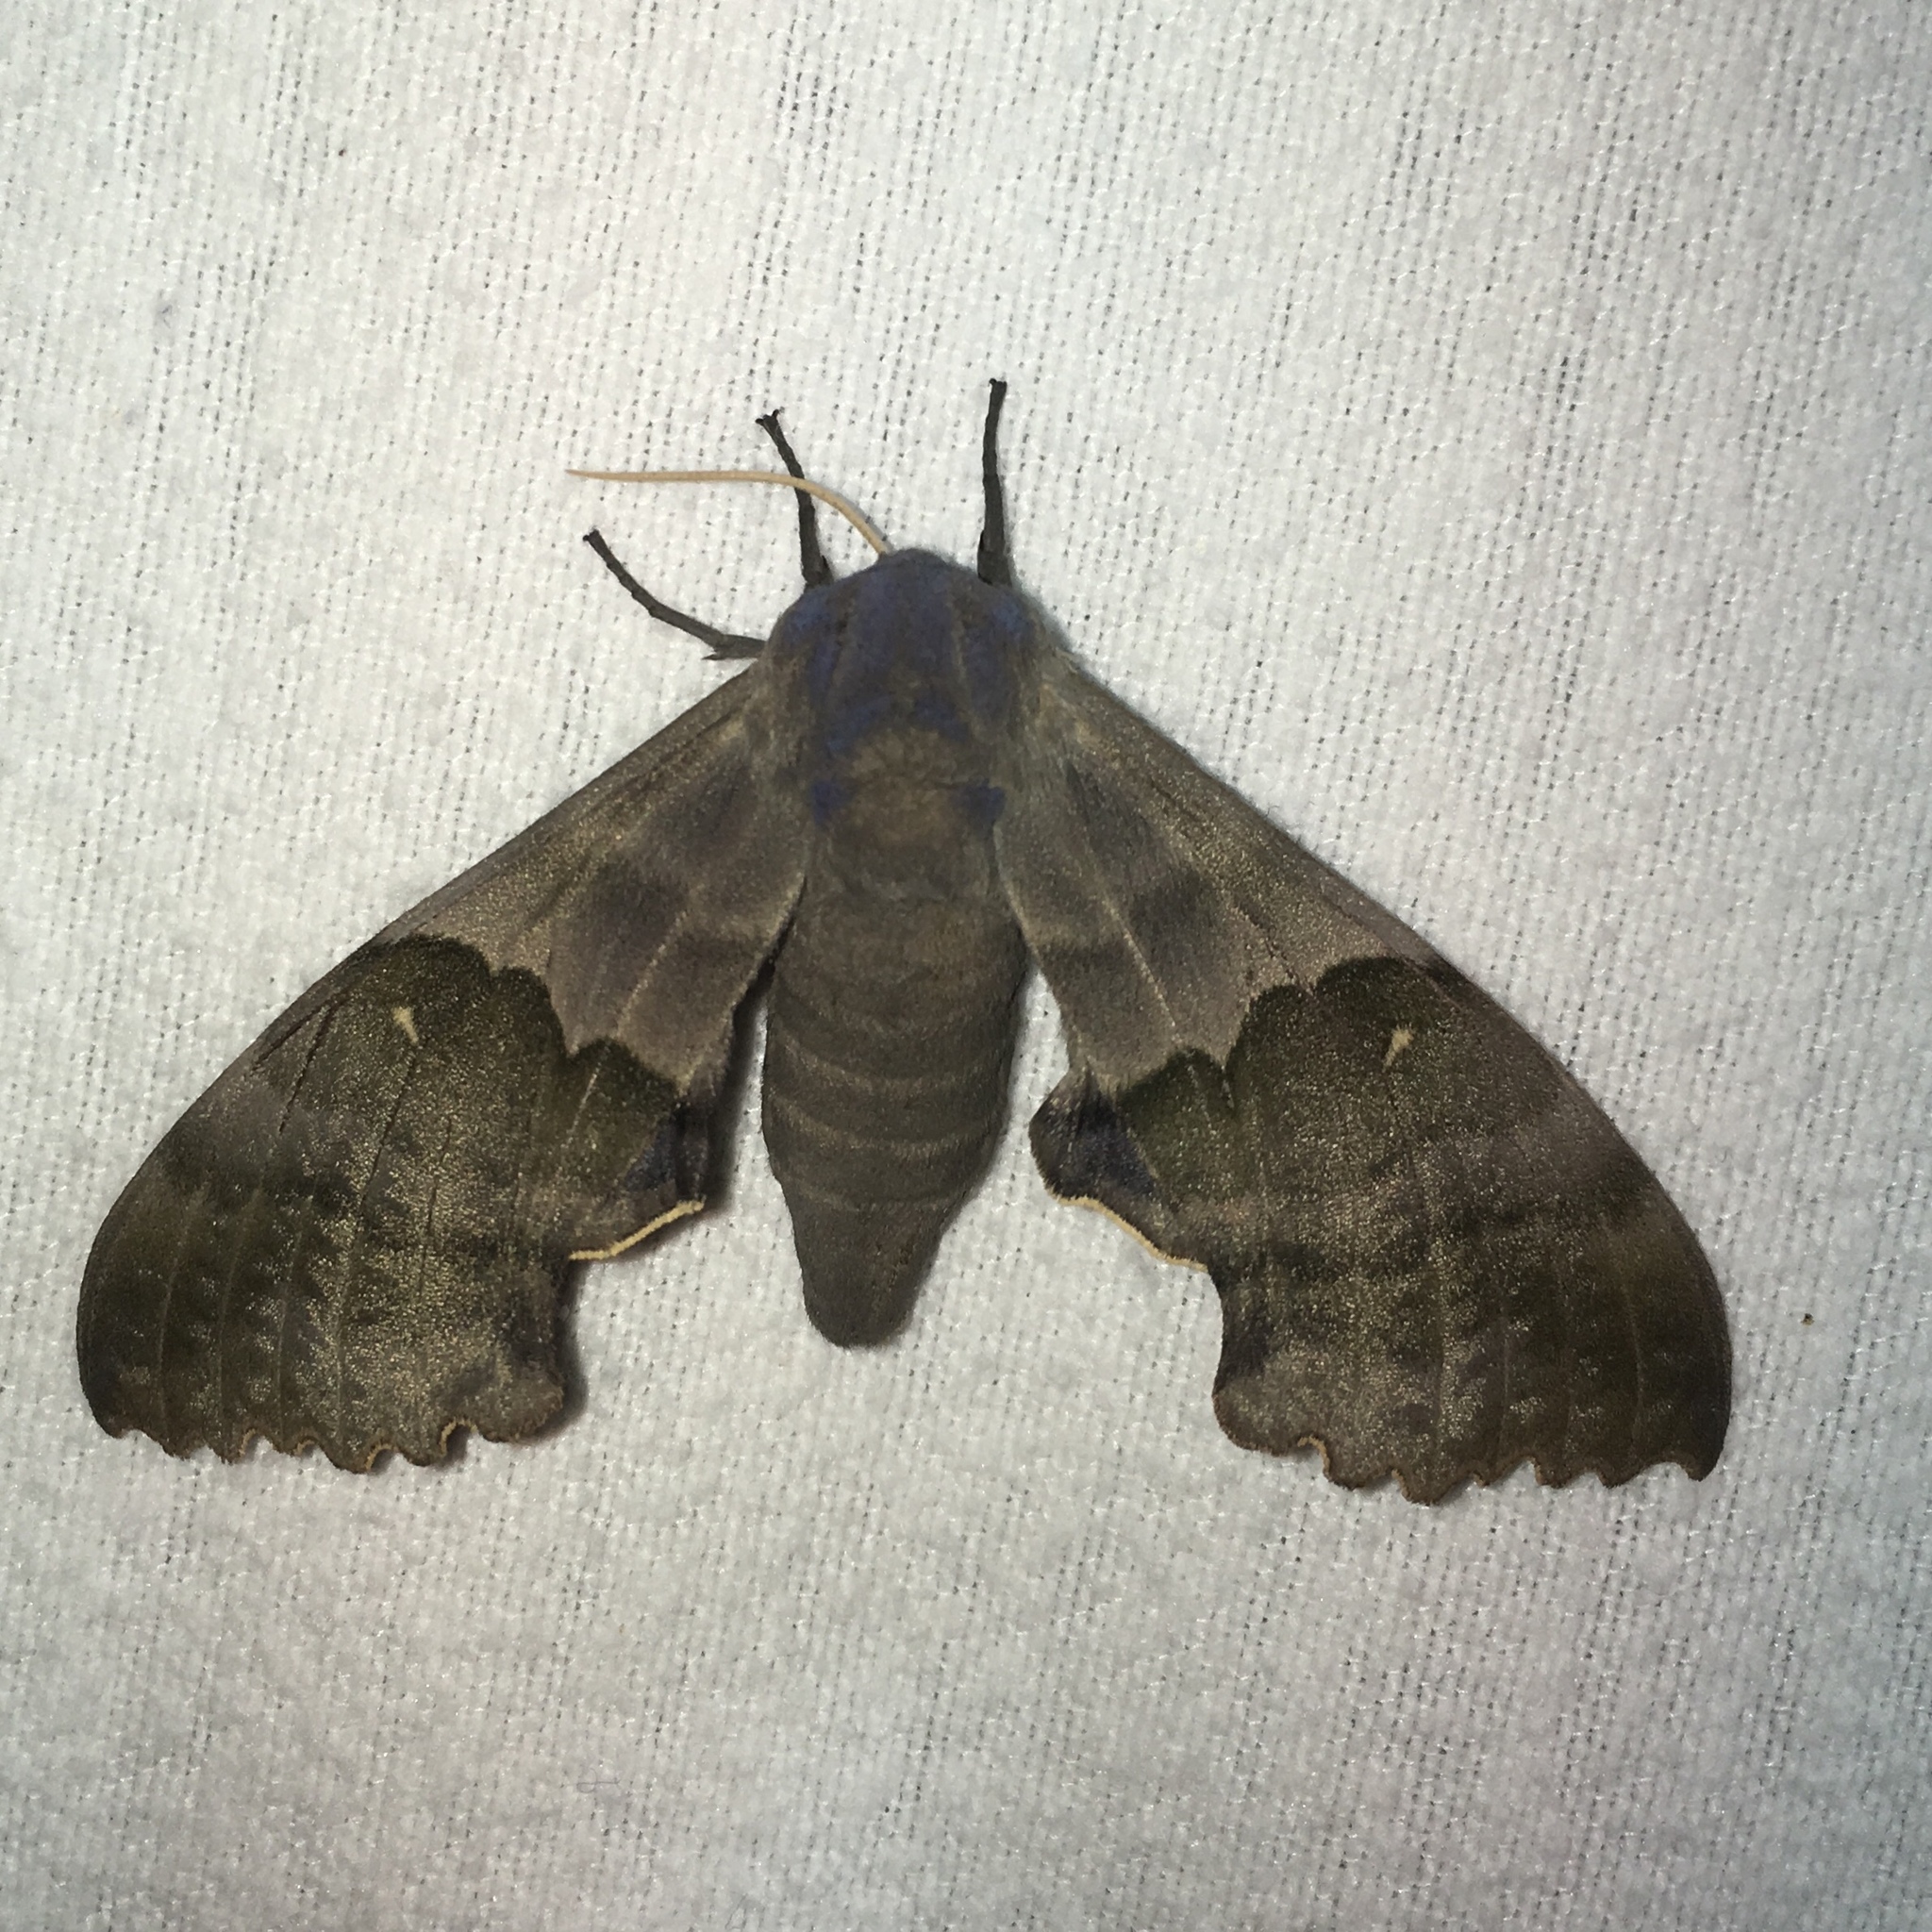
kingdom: Animalia
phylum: Arthropoda
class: Insecta
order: Lepidoptera
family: Sphingidae
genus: Pachysphinx
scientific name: Pachysphinx modesta
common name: Big poplar sphinx
